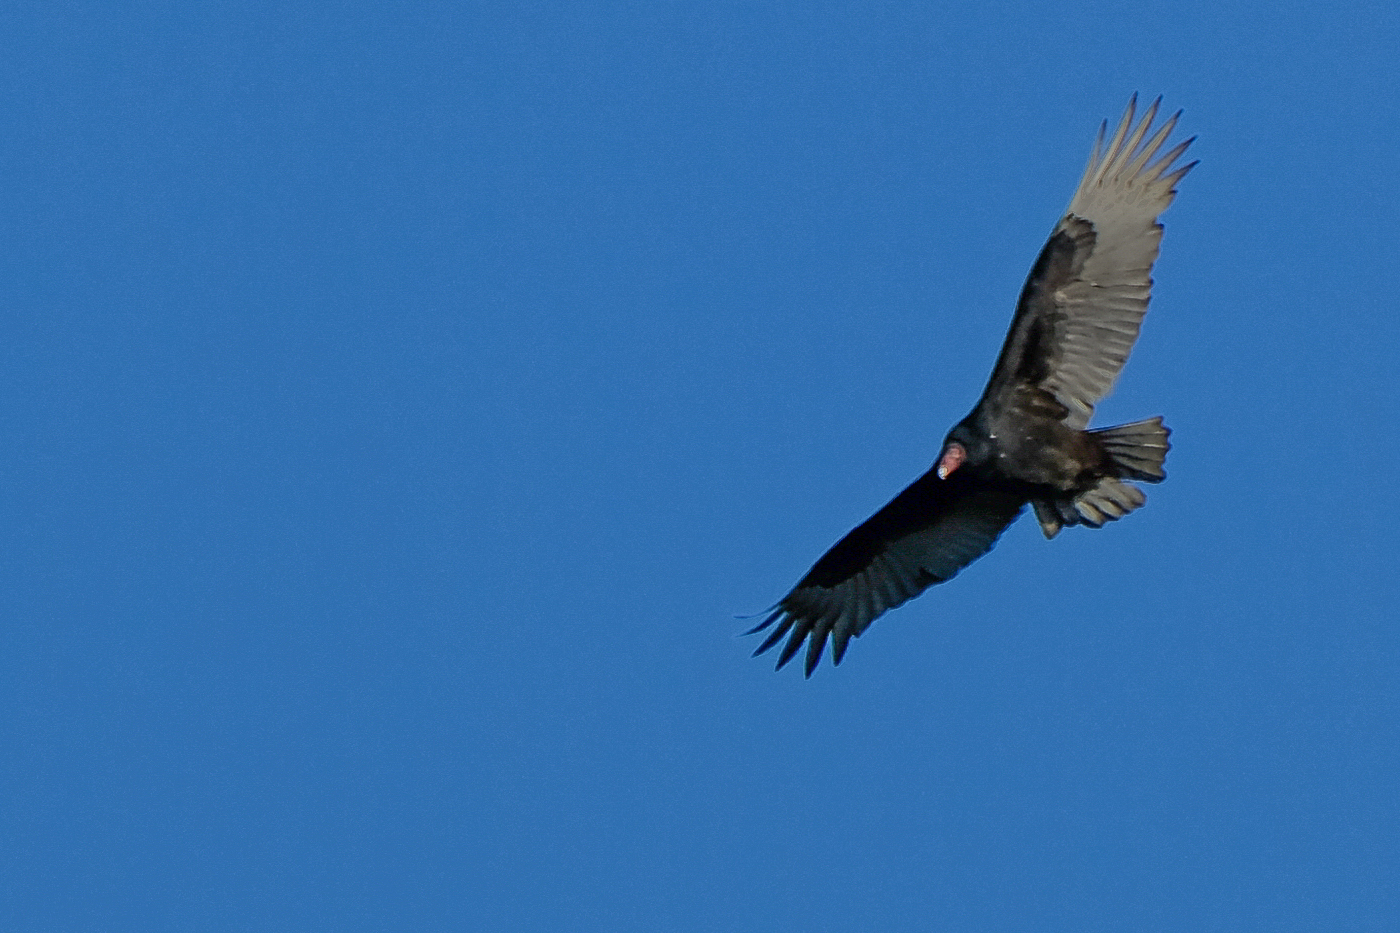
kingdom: Animalia
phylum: Chordata
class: Aves
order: Accipitriformes
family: Cathartidae
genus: Cathartes
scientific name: Cathartes aura
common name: Turkey vulture
